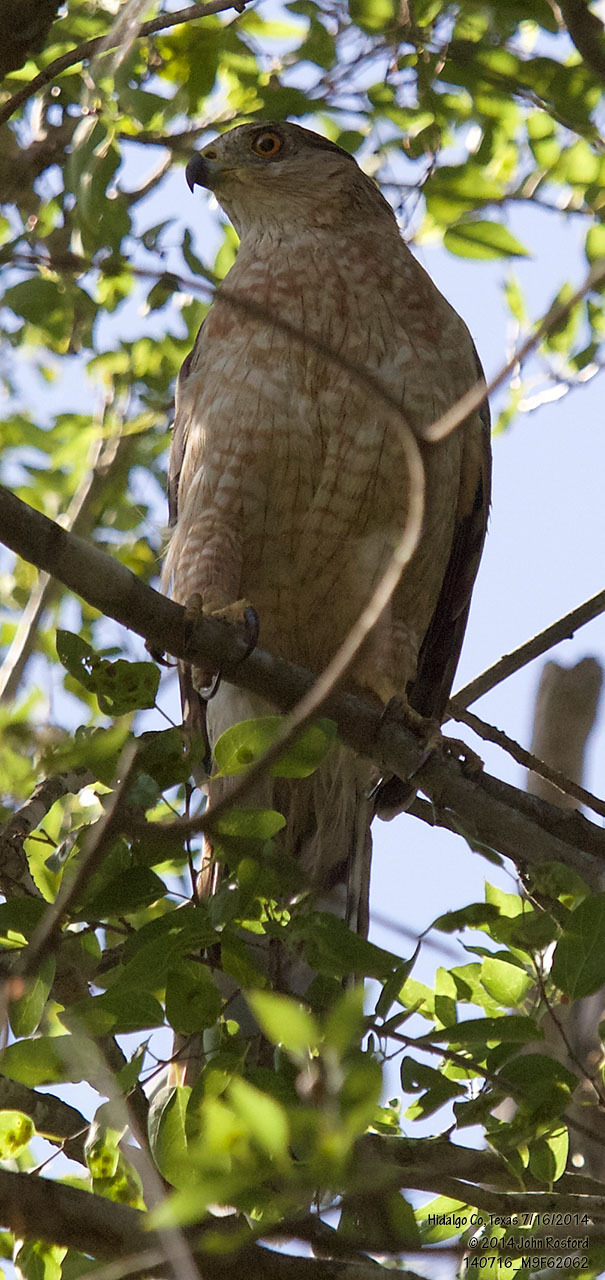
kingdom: Animalia
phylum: Chordata
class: Aves
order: Accipitriformes
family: Accipitridae
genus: Accipiter
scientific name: Accipiter cooperii
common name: Cooper's hawk
